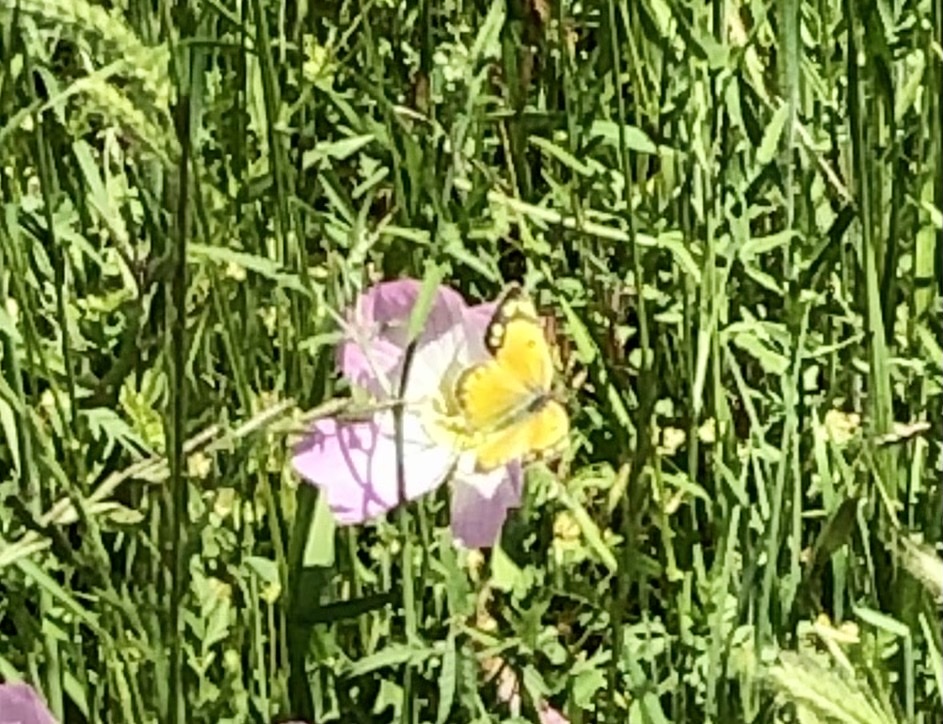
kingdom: Animalia
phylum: Arthropoda
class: Insecta
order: Lepidoptera
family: Pieridae
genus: Colias
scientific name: Colias eurytheme
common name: Alfalfa butterfly
